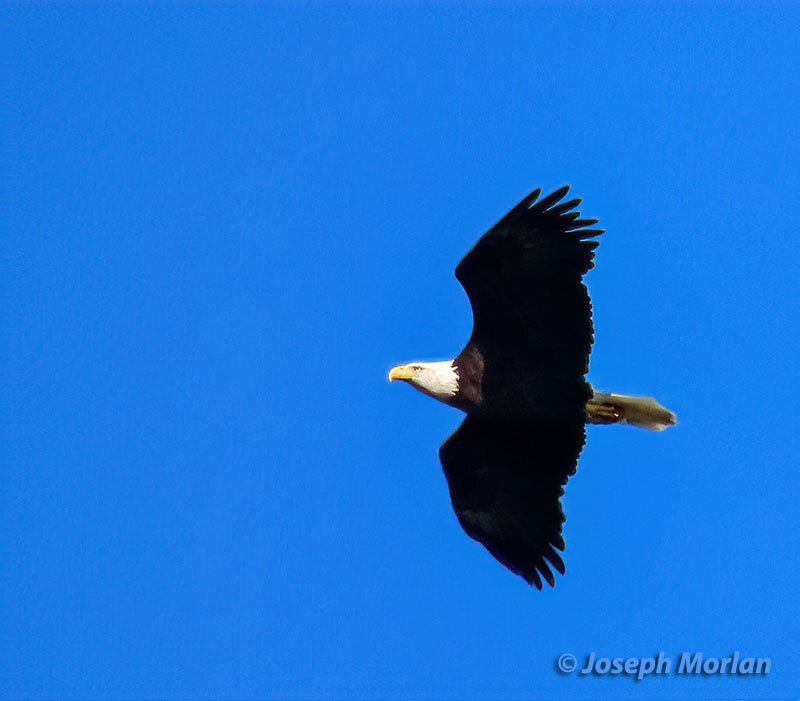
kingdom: Animalia
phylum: Chordata
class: Aves
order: Accipitriformes
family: Accipitridae
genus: Haliaeetus
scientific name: Haliaeetus leucocephalus
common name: Bald eagle
